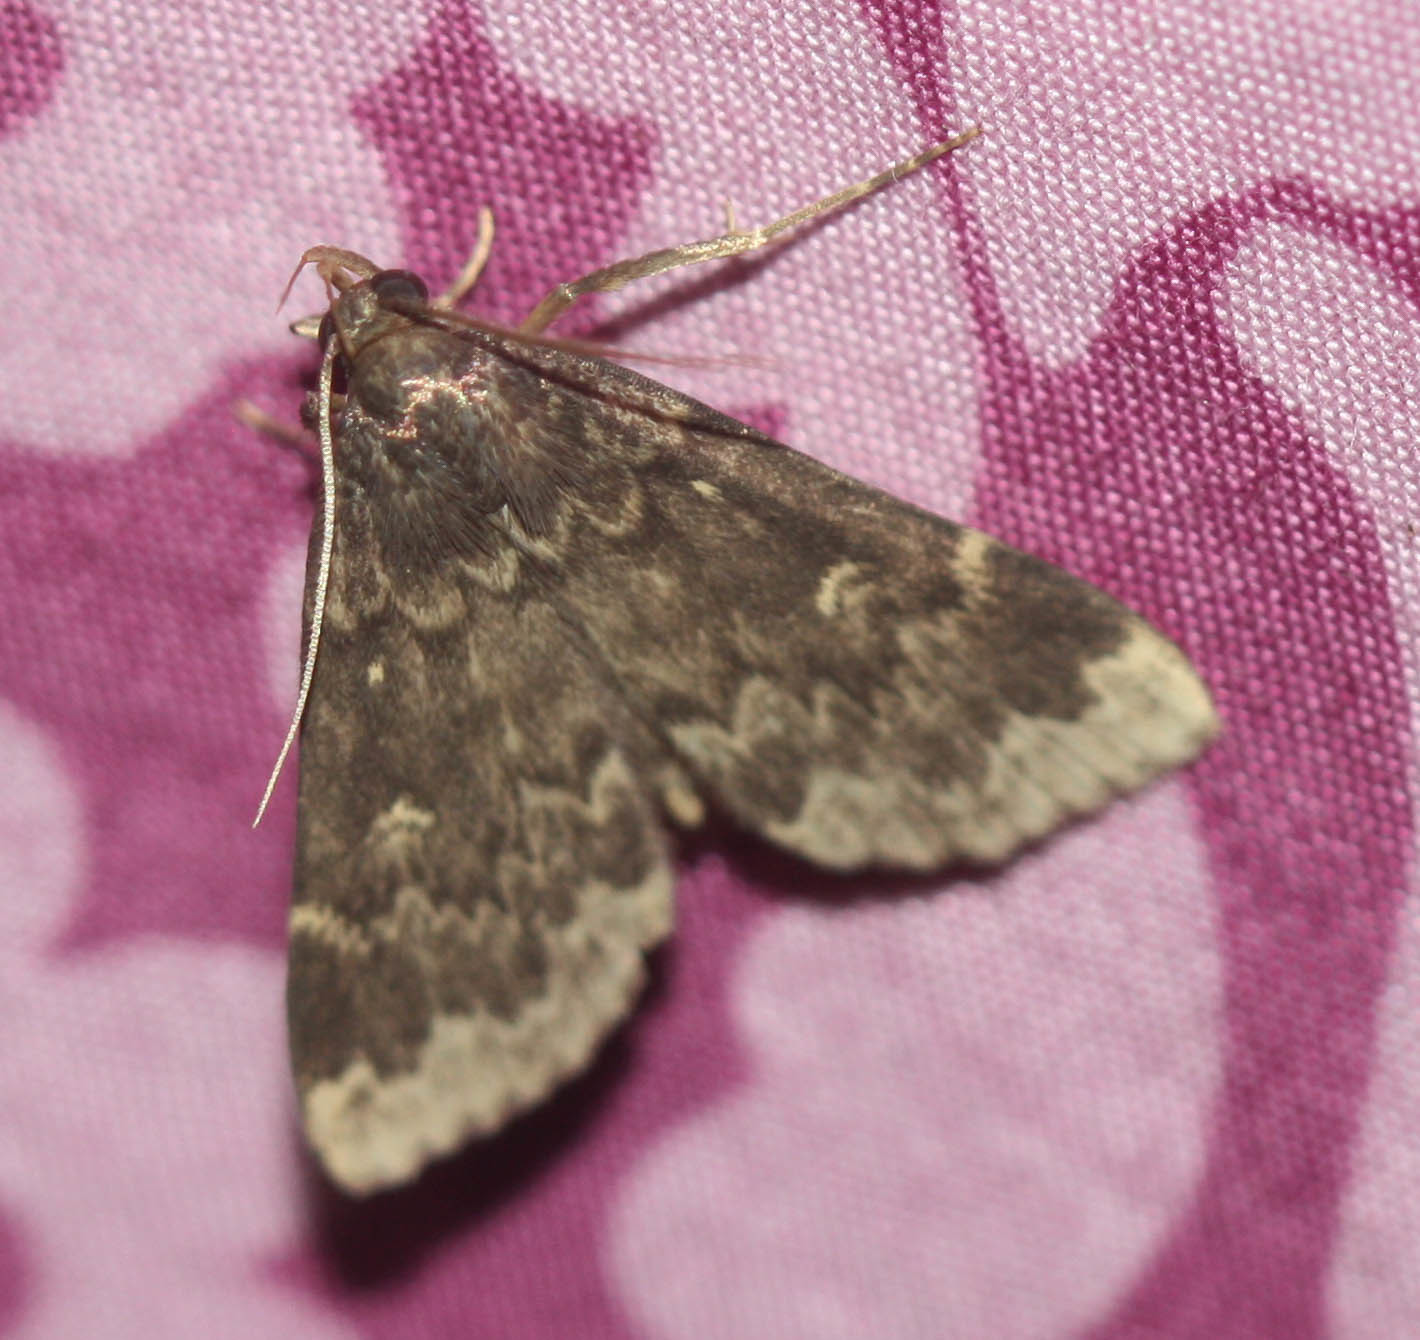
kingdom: Animalia
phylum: Arthropoda
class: Insecta
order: Lepidoptera
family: Erebidae
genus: Idia
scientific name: Idia lubricalis
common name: Twin-striped tabby
